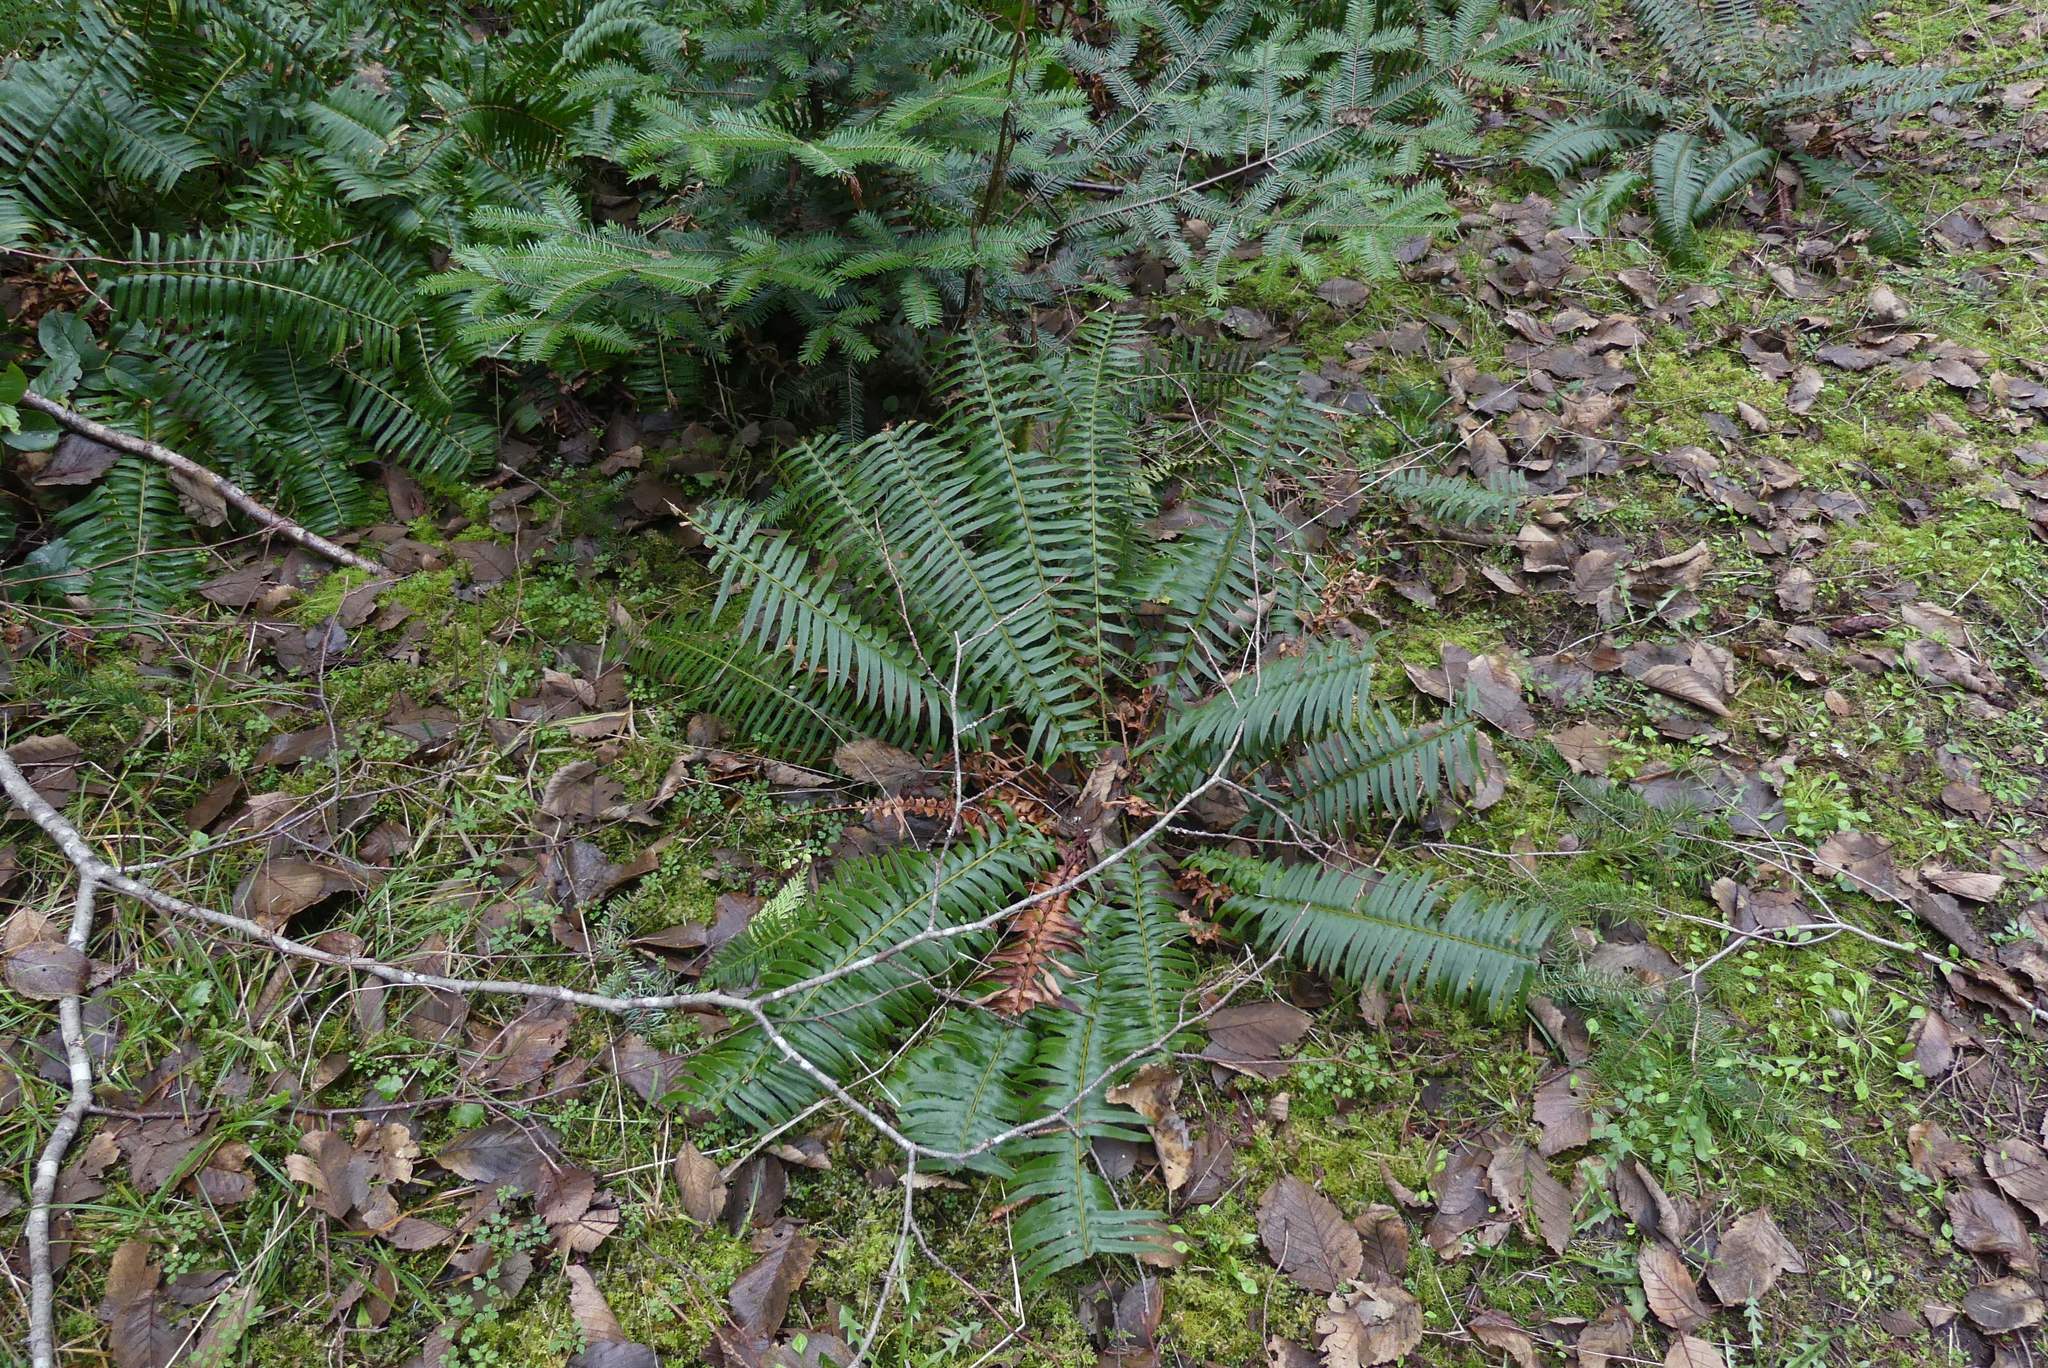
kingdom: Plantae
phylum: Tracheophyta
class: Polypodiopsida
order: Polypodiales
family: Dryopteridaceae
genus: Polystichum
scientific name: Polystichum munitum
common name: Western sword-fern
